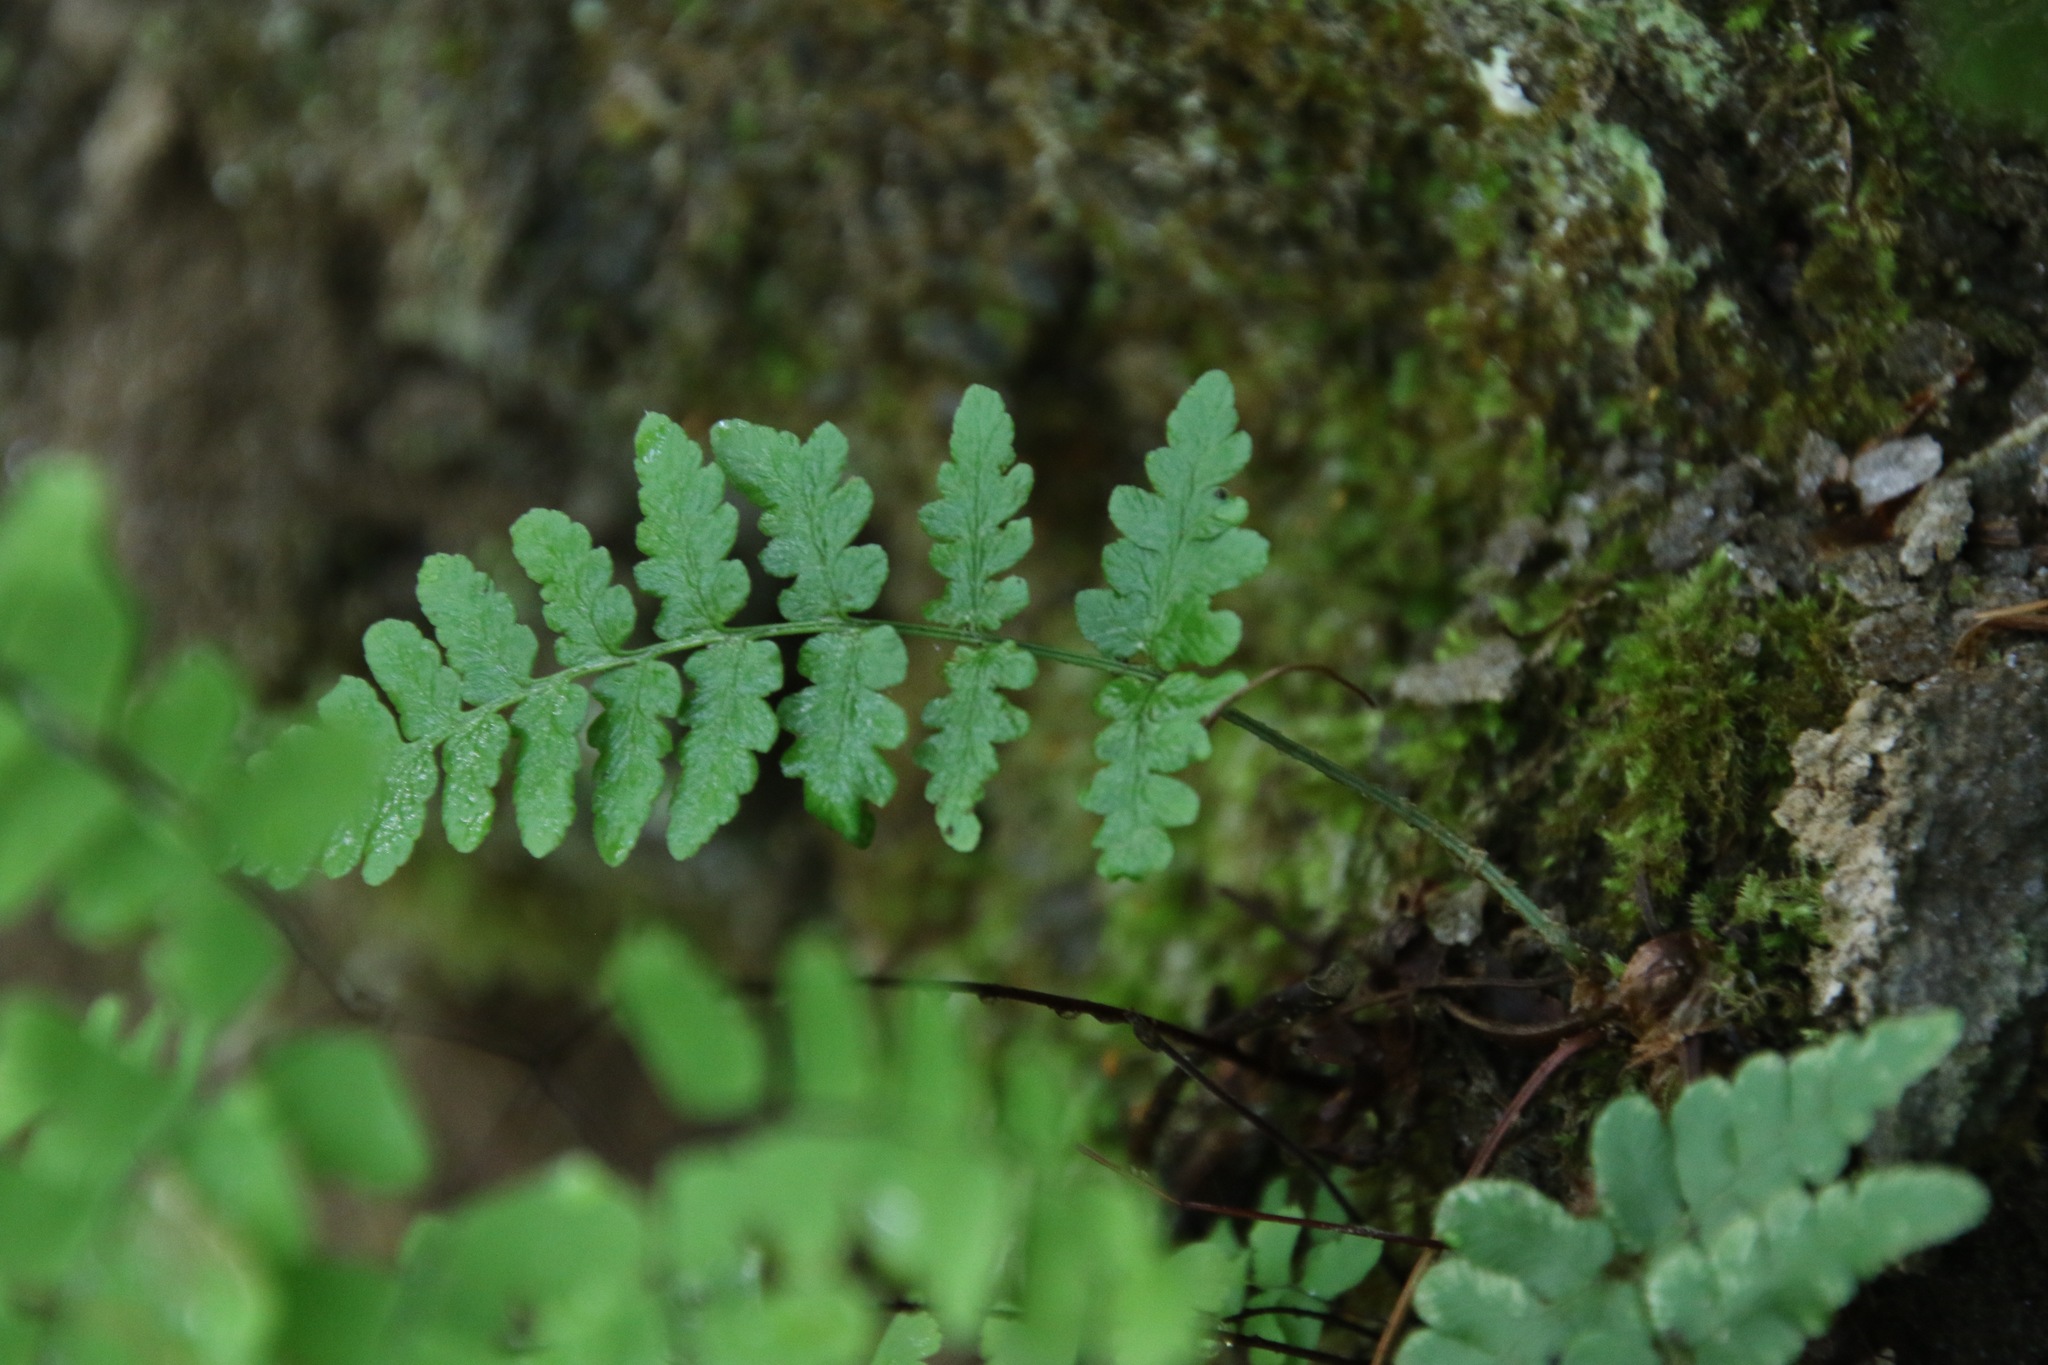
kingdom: Plantae
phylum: Tracheophyta
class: Polypodiopsida
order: Polypodiales
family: Dryopteridaceae
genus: Dryopteris
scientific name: Dryopteris marginalis
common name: Marginal wood fern
